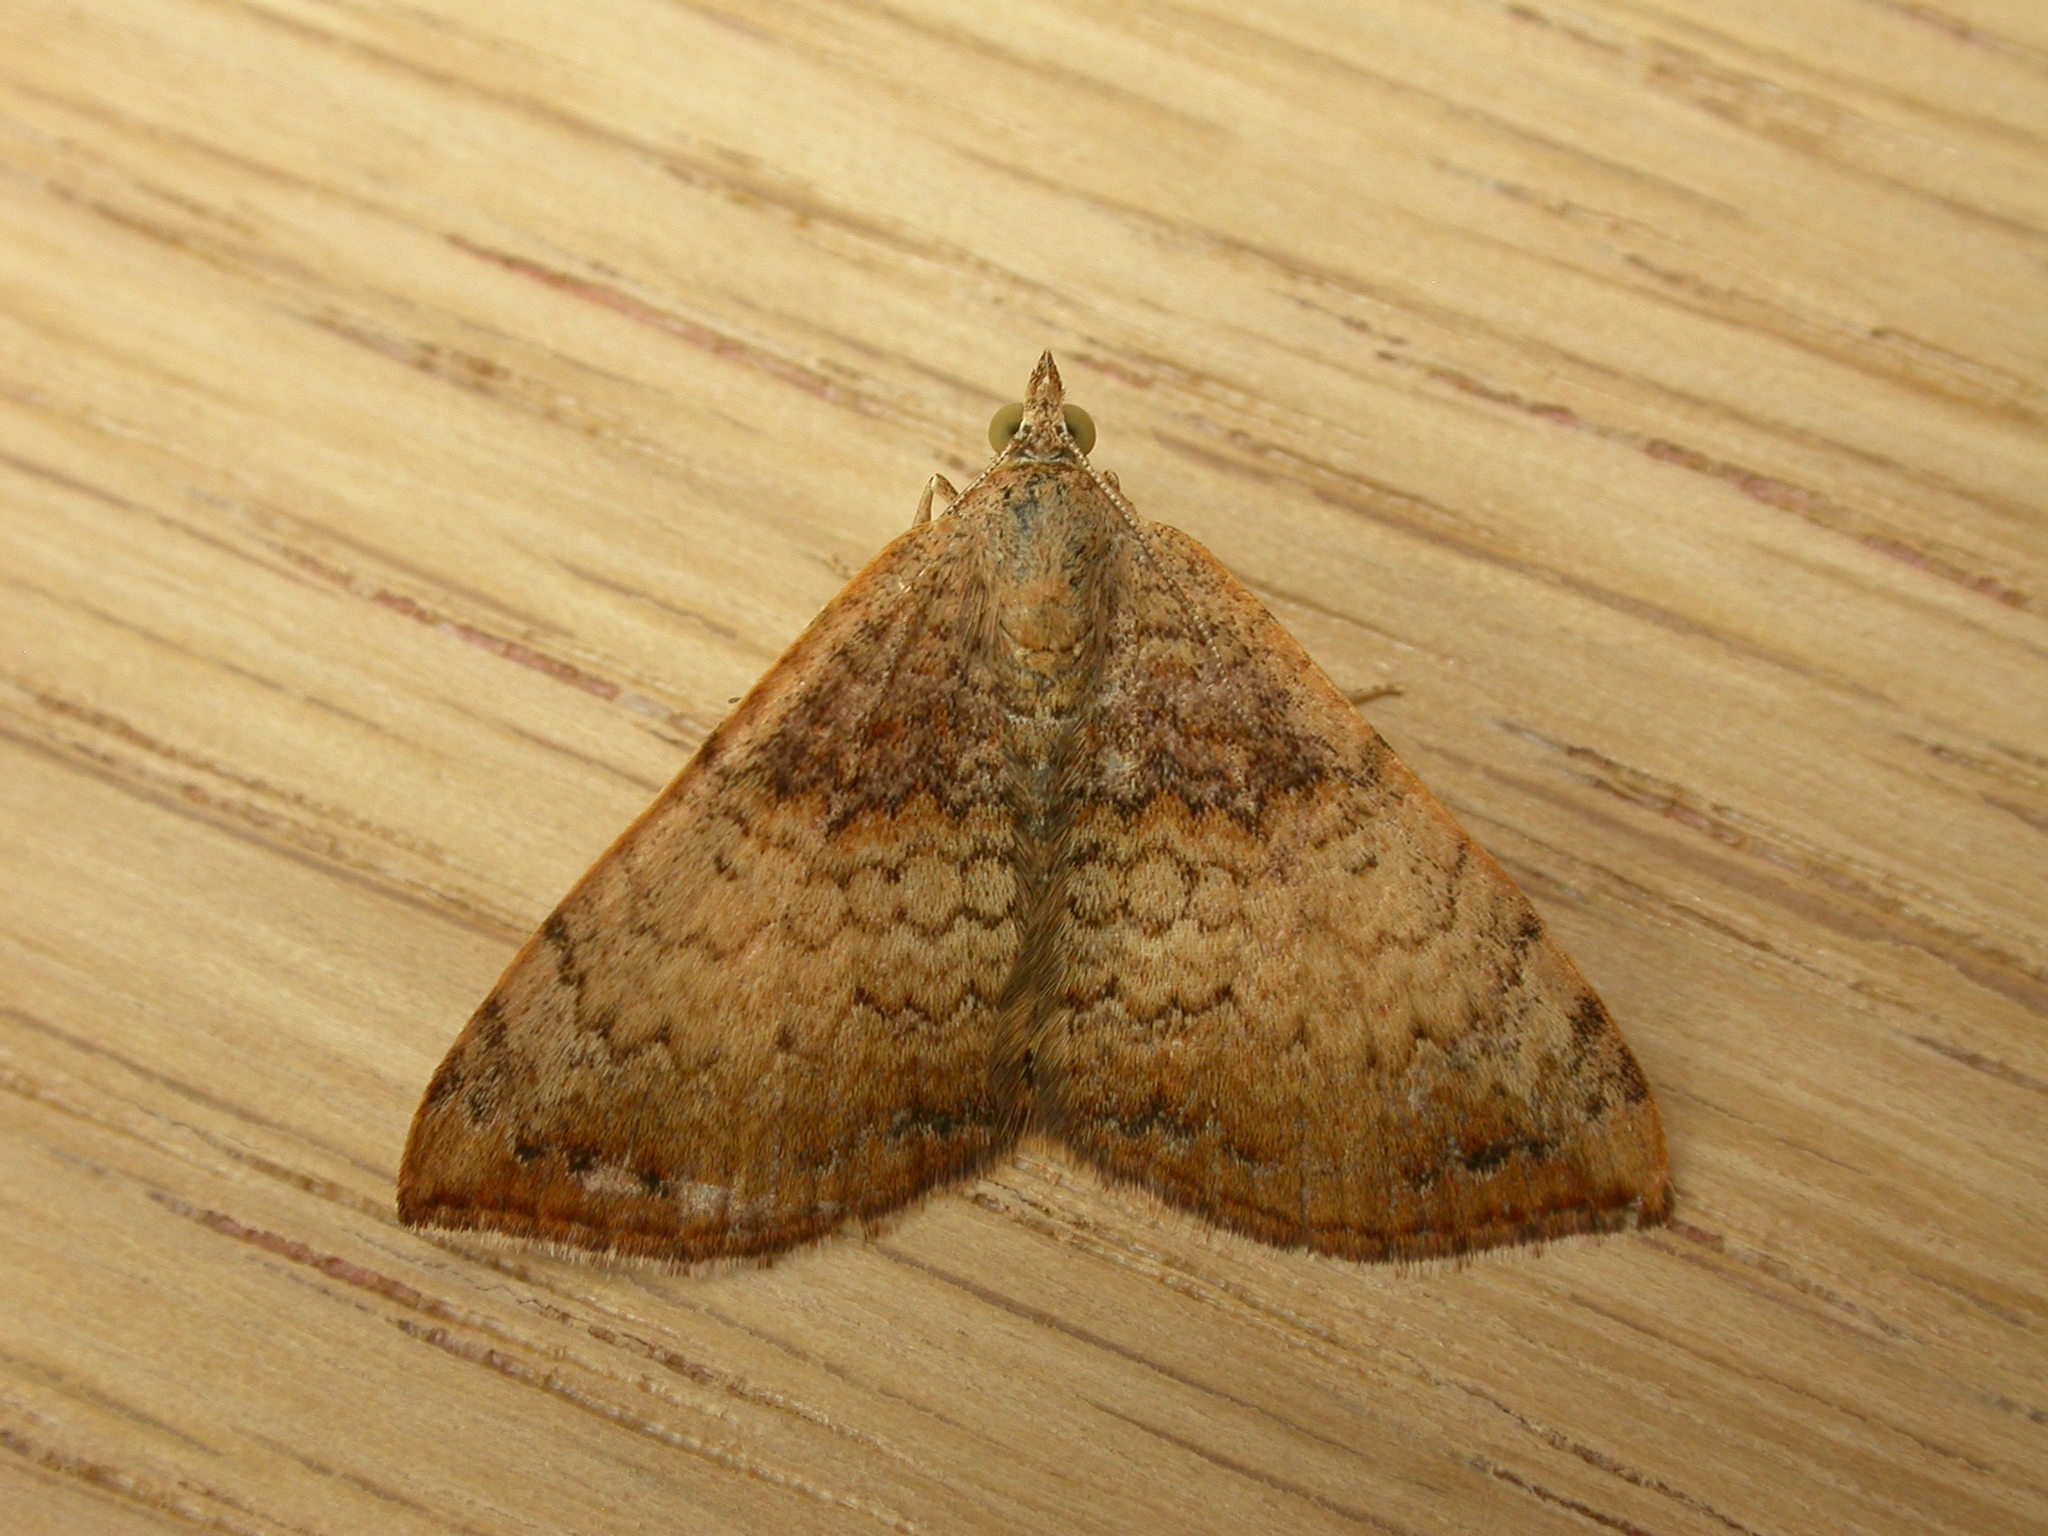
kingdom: Animalia
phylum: Arthropoda
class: Insecta
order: Lepidoptera
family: Geometridae
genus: Chrysolarentia
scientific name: Chrysolarentia mecynata
